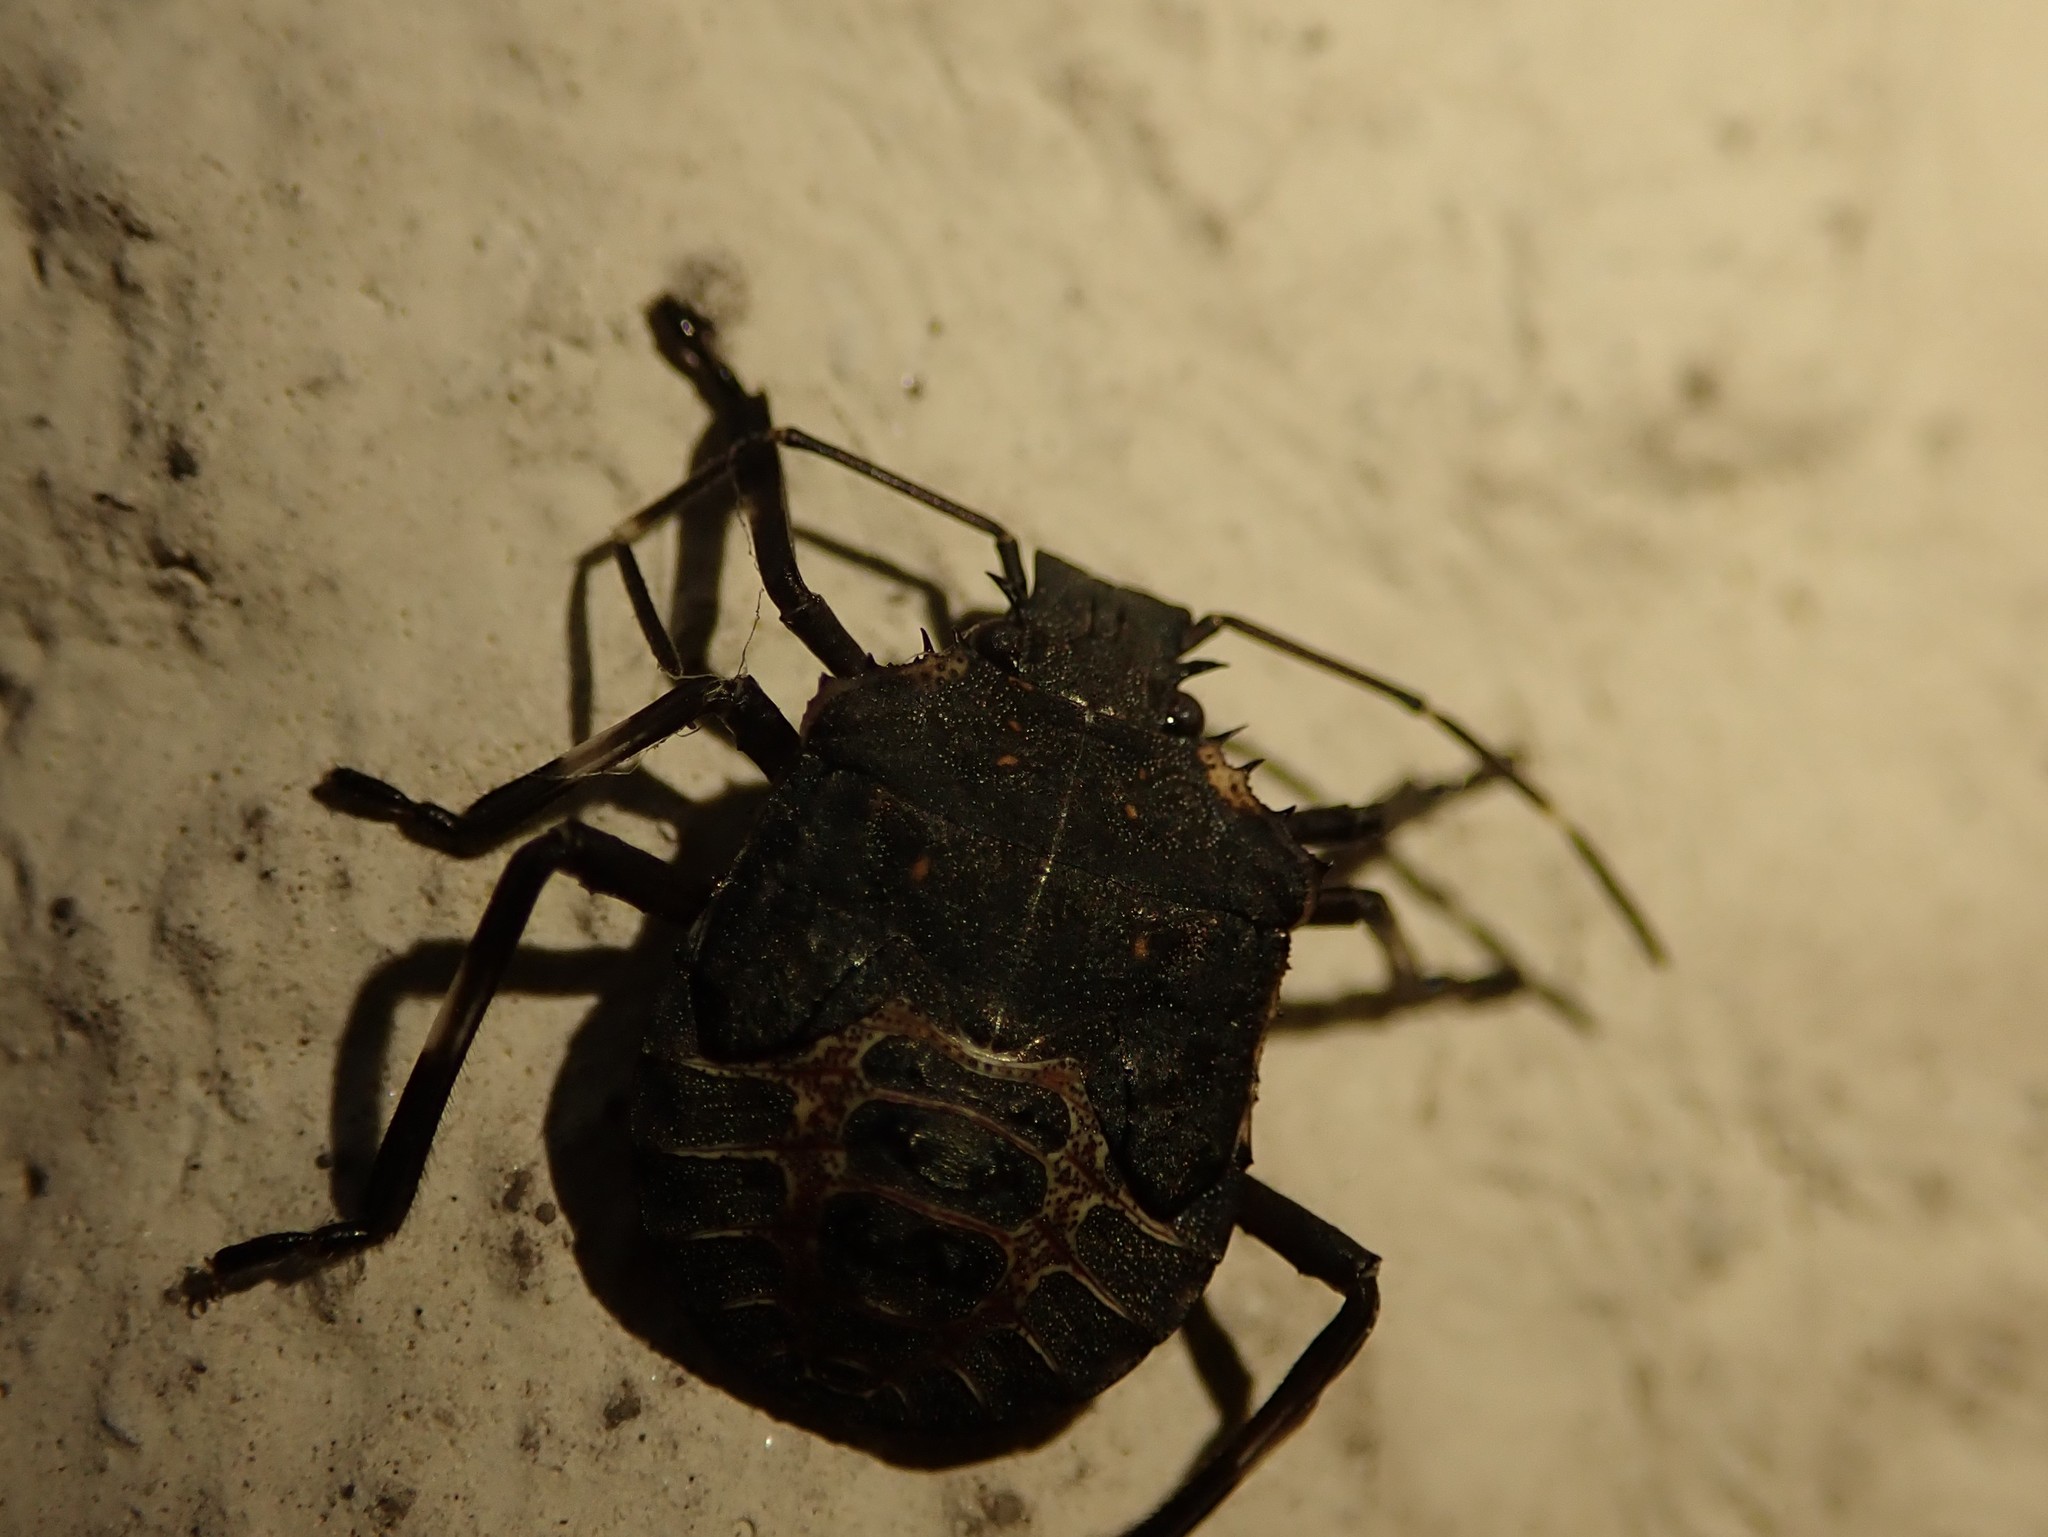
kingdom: Animalia
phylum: Arthropoda
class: Insecta
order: Hemiptera
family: Pentatomidae
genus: Halyomorpha
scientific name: Halyomorpha halys
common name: Brown marmorated stink bug
